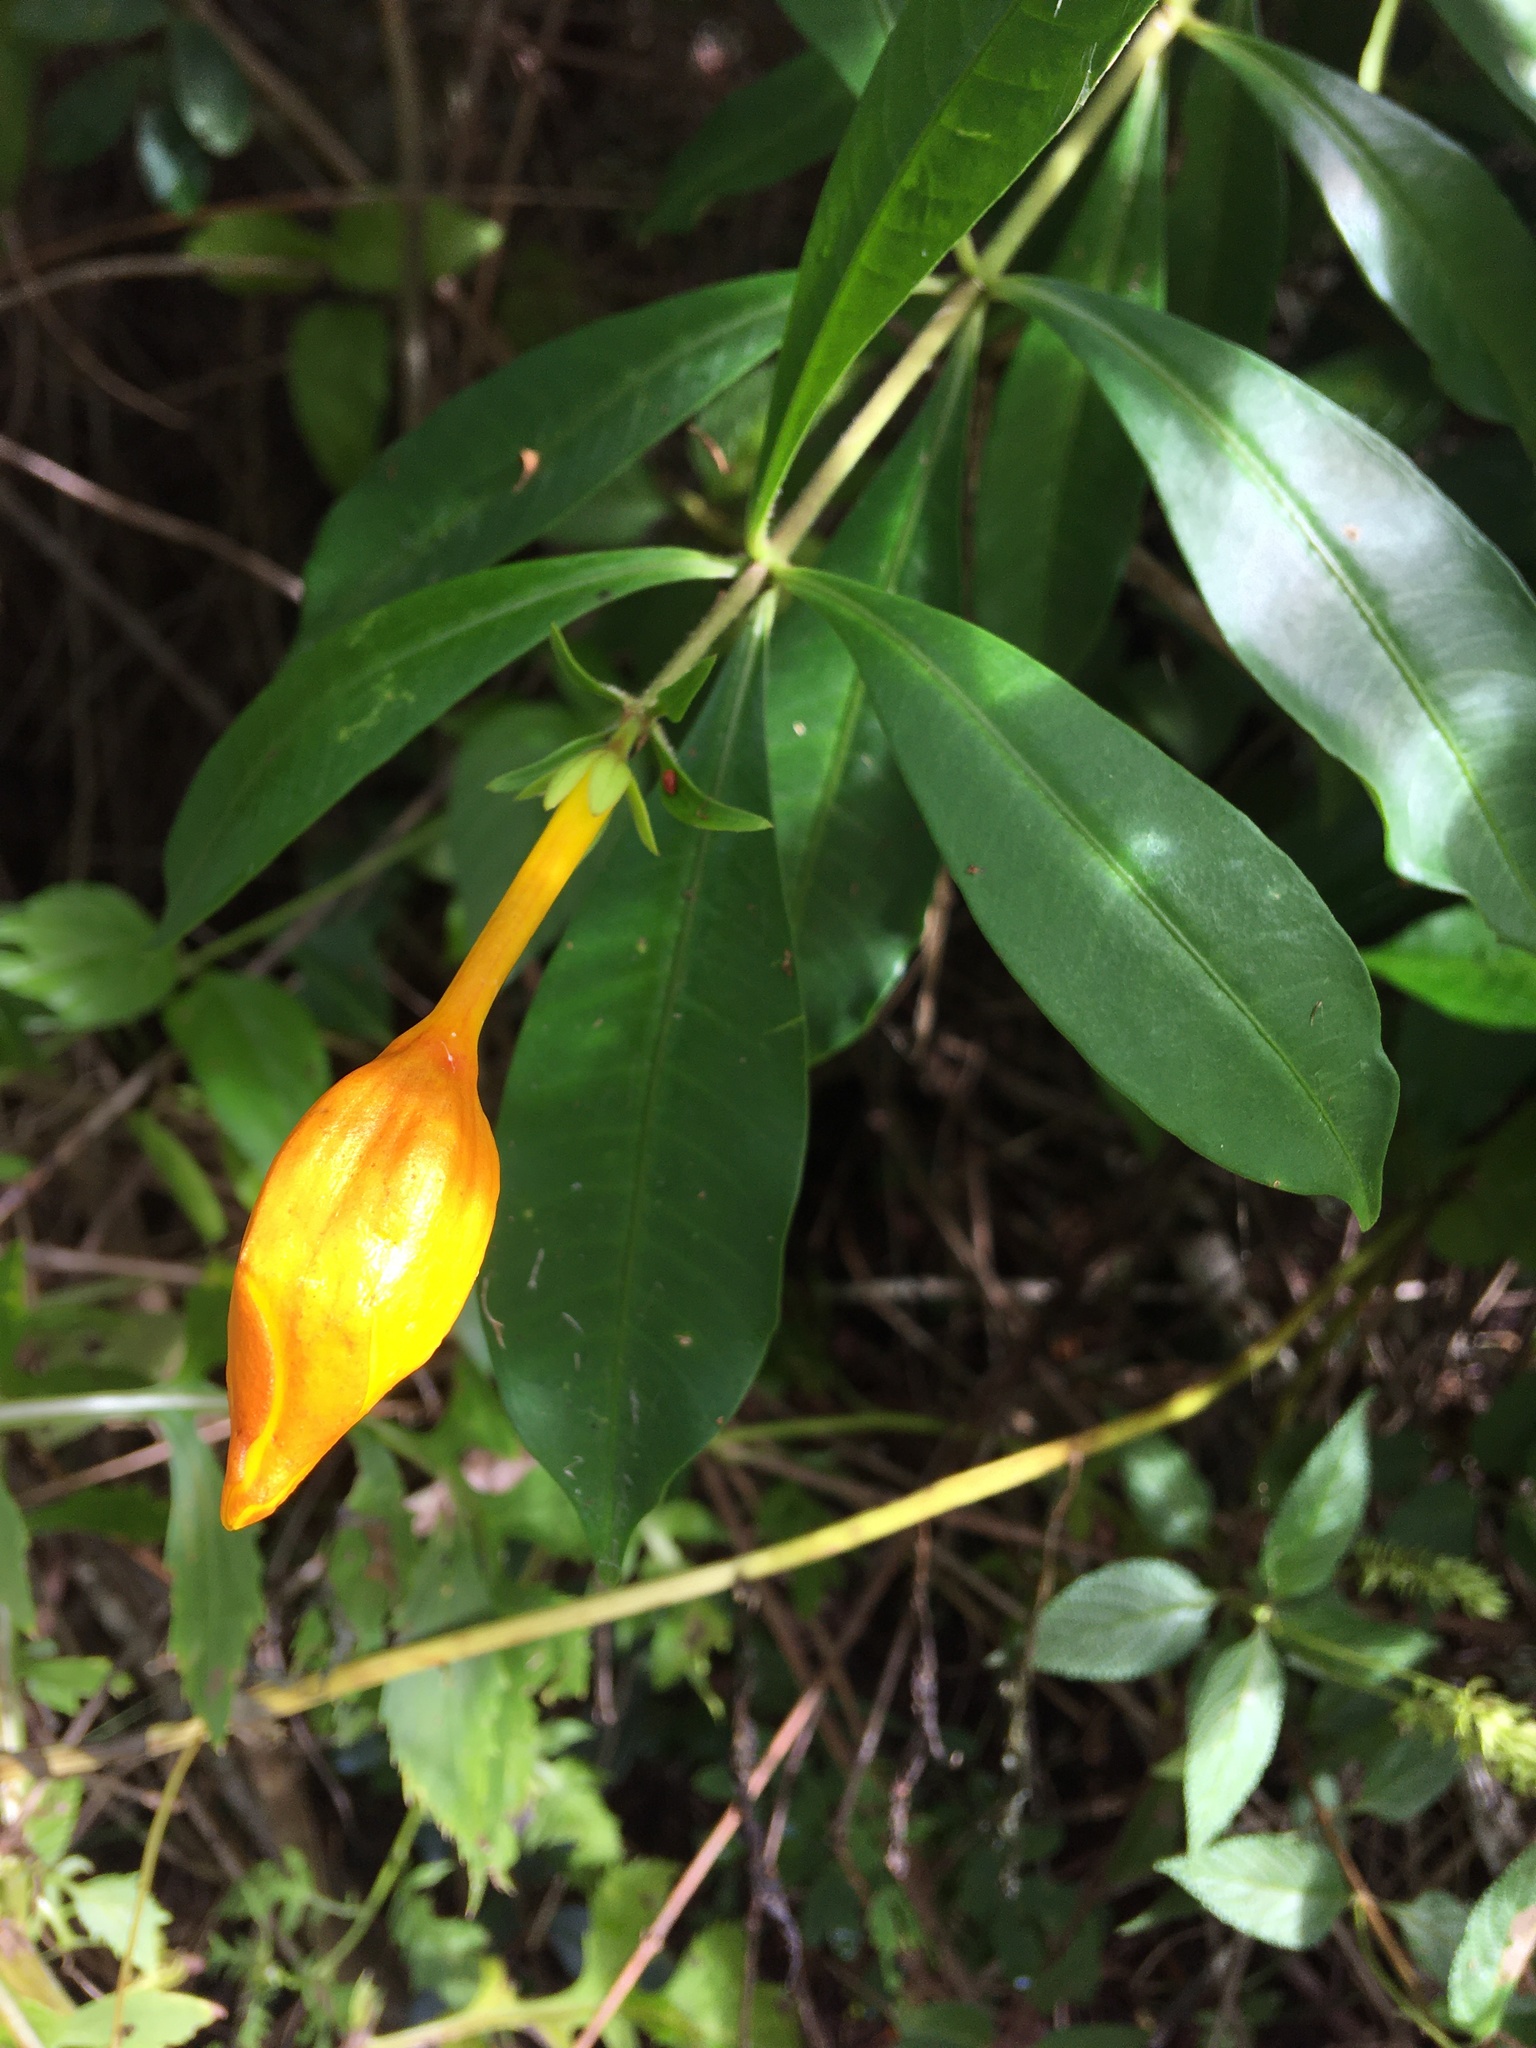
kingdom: Plantae
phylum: Tracheophyta
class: Magnoliopsida
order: Gentianales
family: Apocynaceae
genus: Allamanda
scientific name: Allamanda cathartica
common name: Golden trumpet
